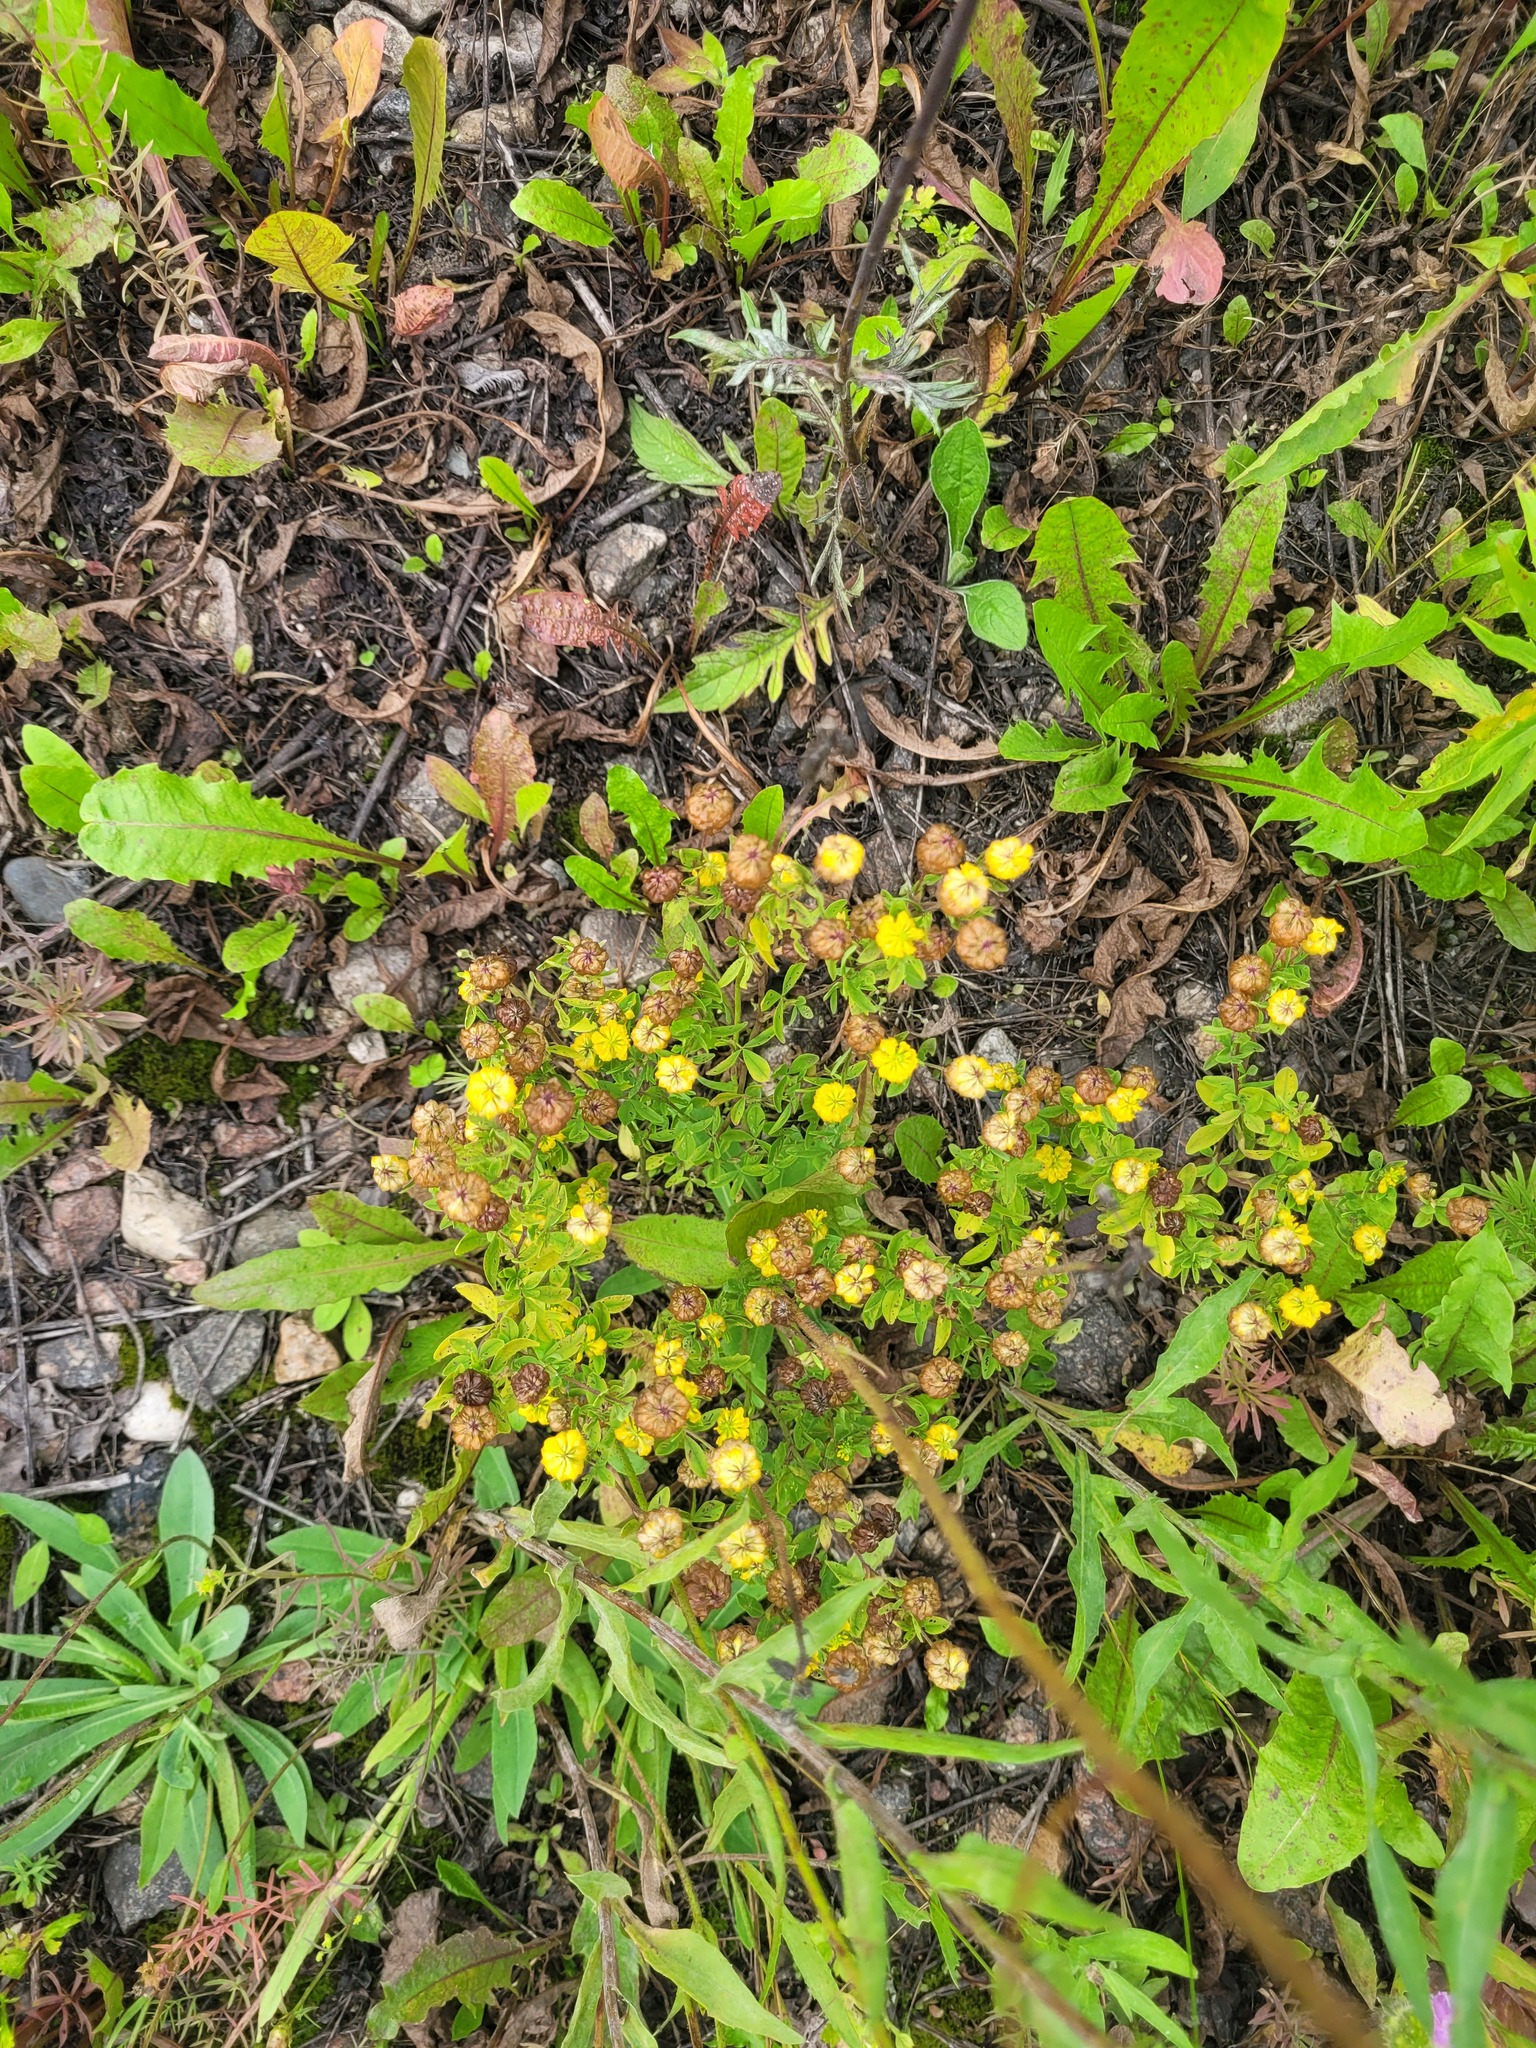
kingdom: Plantae
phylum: Tracheophyta
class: Magnoliopsida
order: Fabales
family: Fabaceae
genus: Trifolium
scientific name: Trifolium aureum
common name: Golden clover
